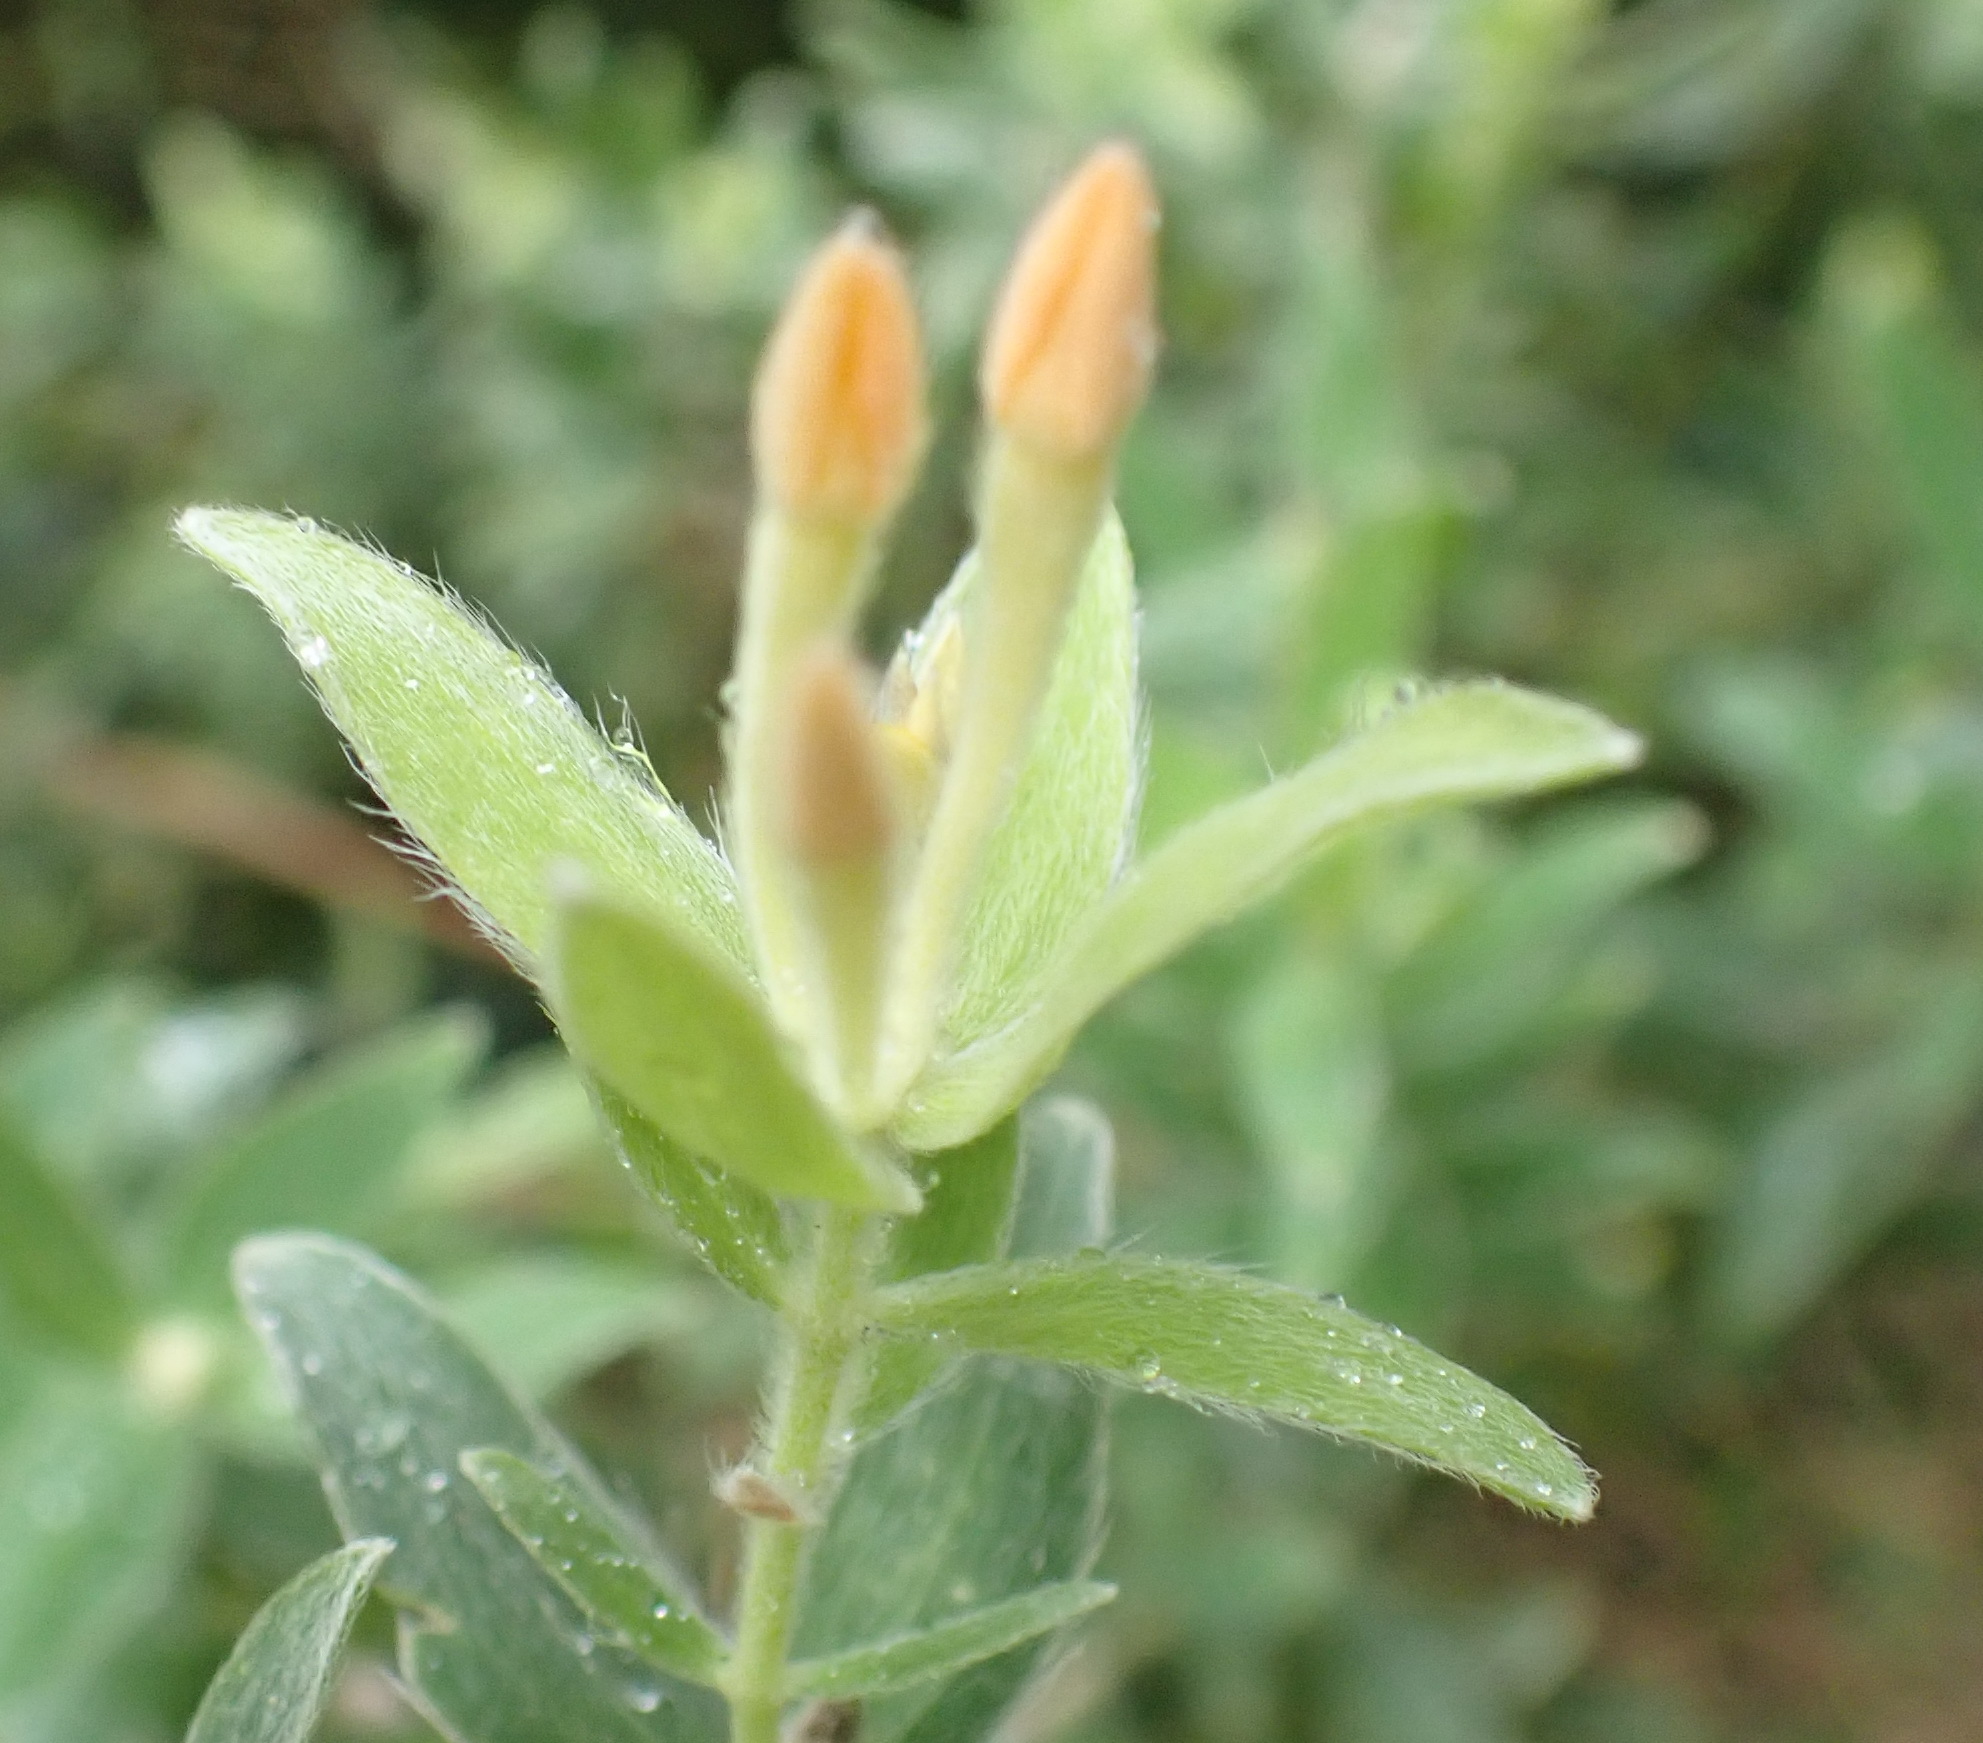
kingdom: Plantae
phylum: Tracheophyta
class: Magnoliopsida
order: Malvales
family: Thymelaeaceae
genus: Gnidia
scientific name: Gnidia
